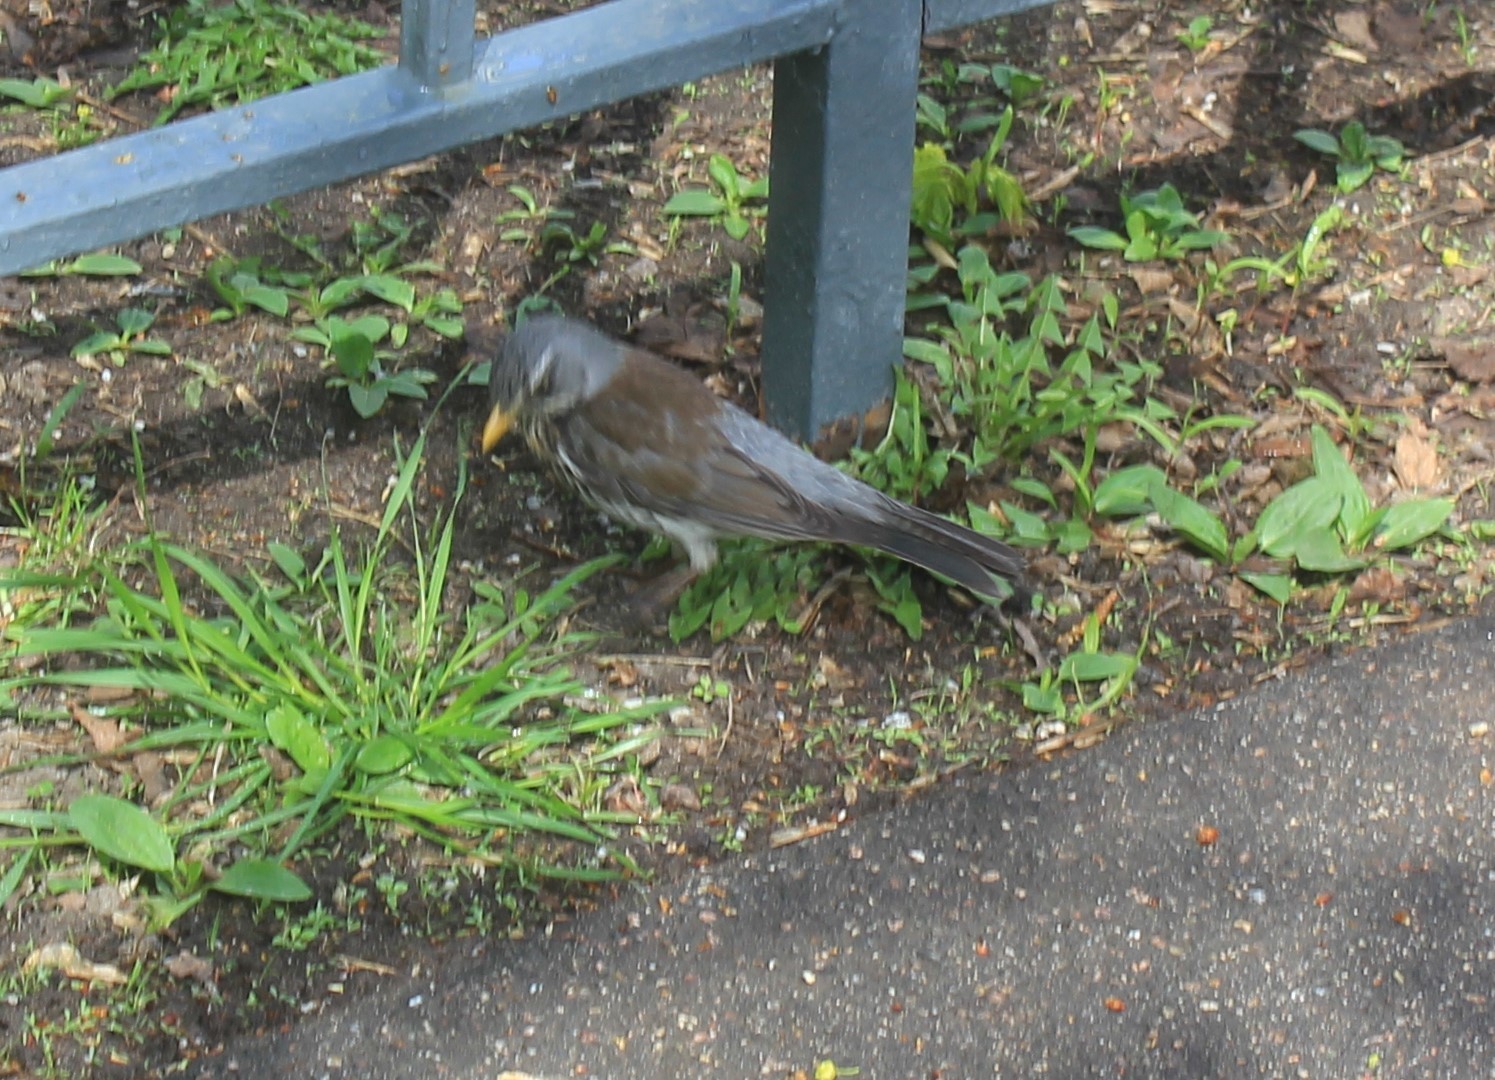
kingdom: Animalia
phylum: Chordata
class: Aves
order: Passeriformes
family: Turdidae
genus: Turdus
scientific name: Turdus pilaris
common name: Fieldfare
